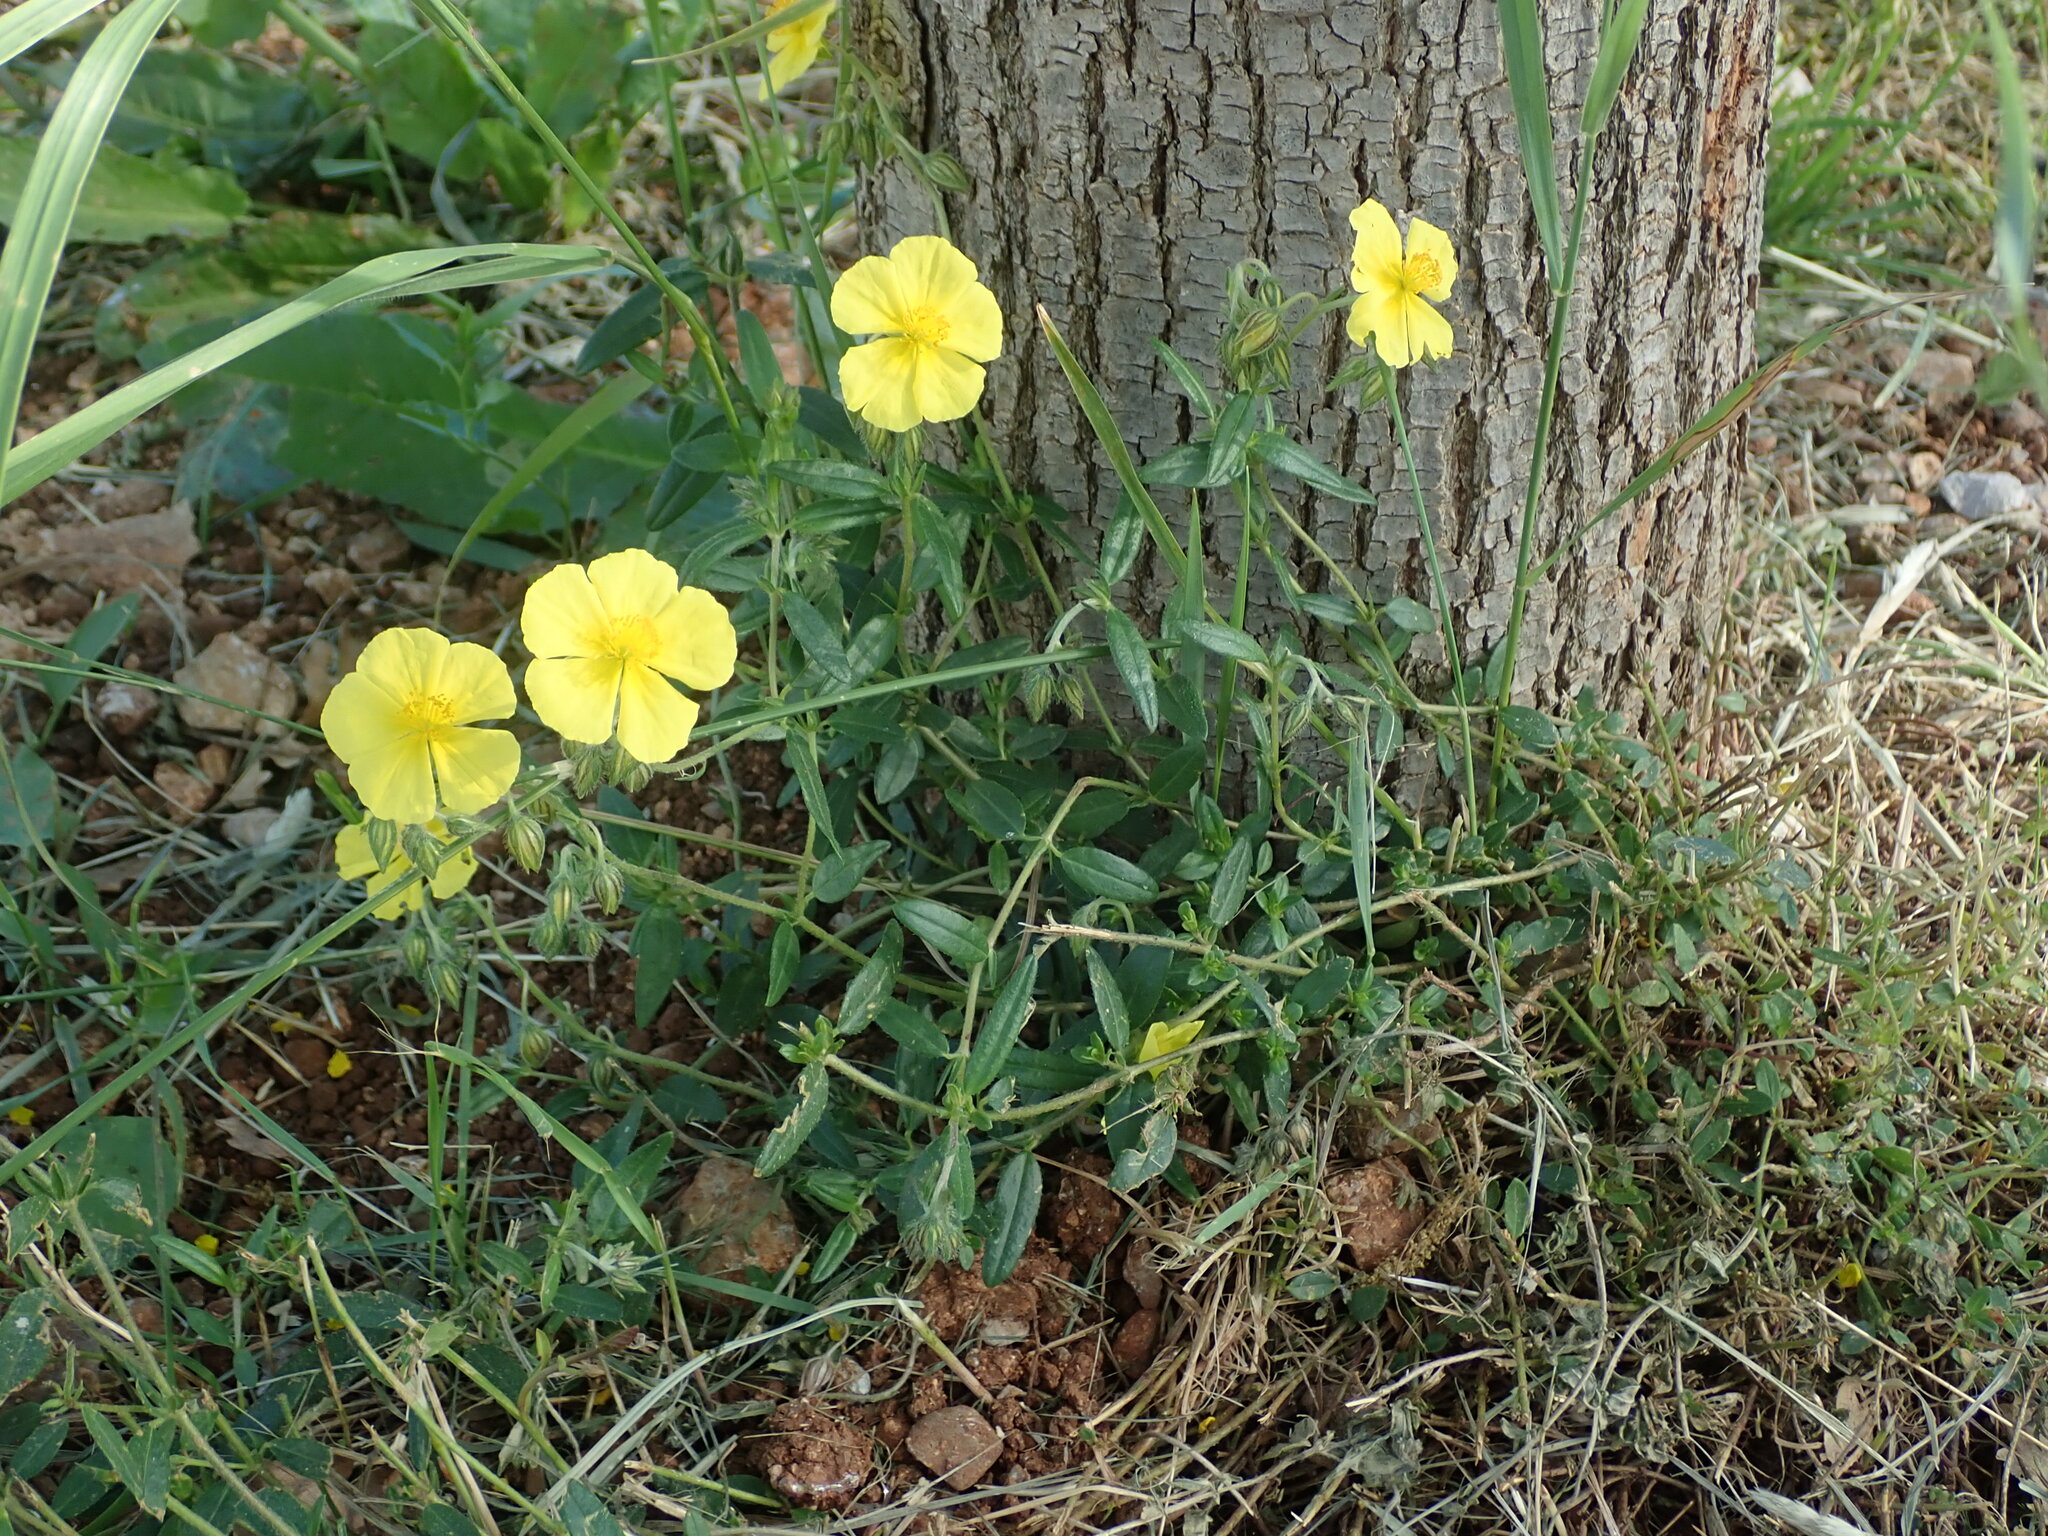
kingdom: Plantae
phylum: Tracheophyta
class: Magnoliopsida
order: Malvales
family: Cistaceae
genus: Helianthemum
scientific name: Helianthemum nummularium
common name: Common rock-rose
